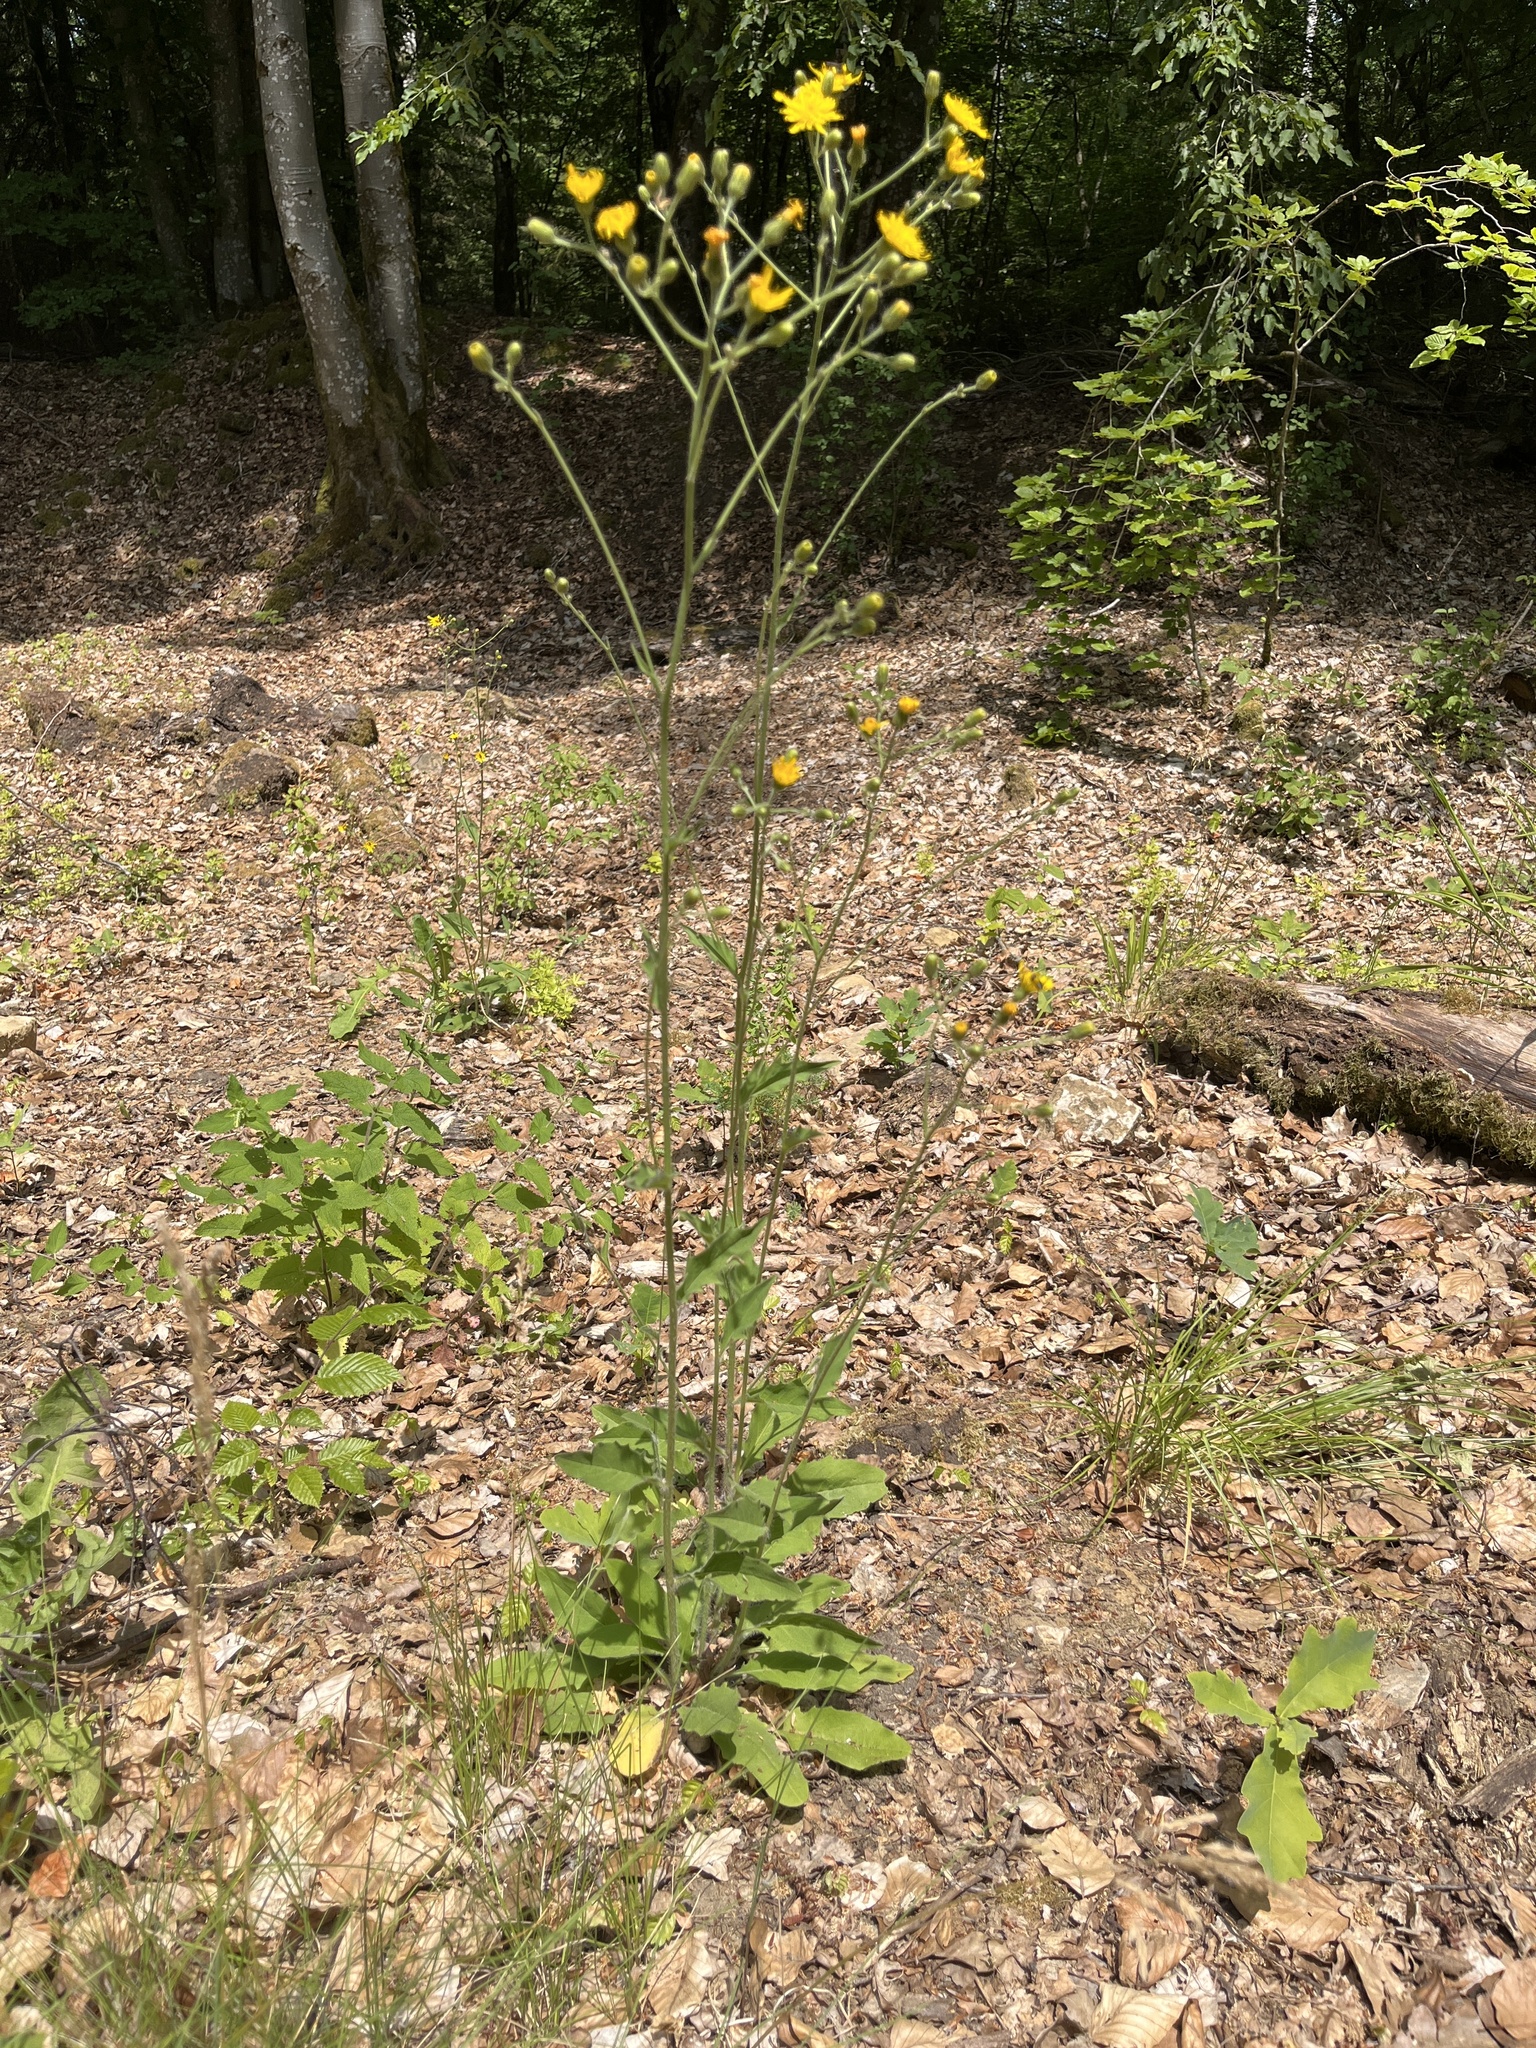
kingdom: Plantae
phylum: Tracheophyta
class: Magnoliopsida
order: Asterales
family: Asteraceae
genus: Hieracium
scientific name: Hieracium lachenalii
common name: Common hawkweed
